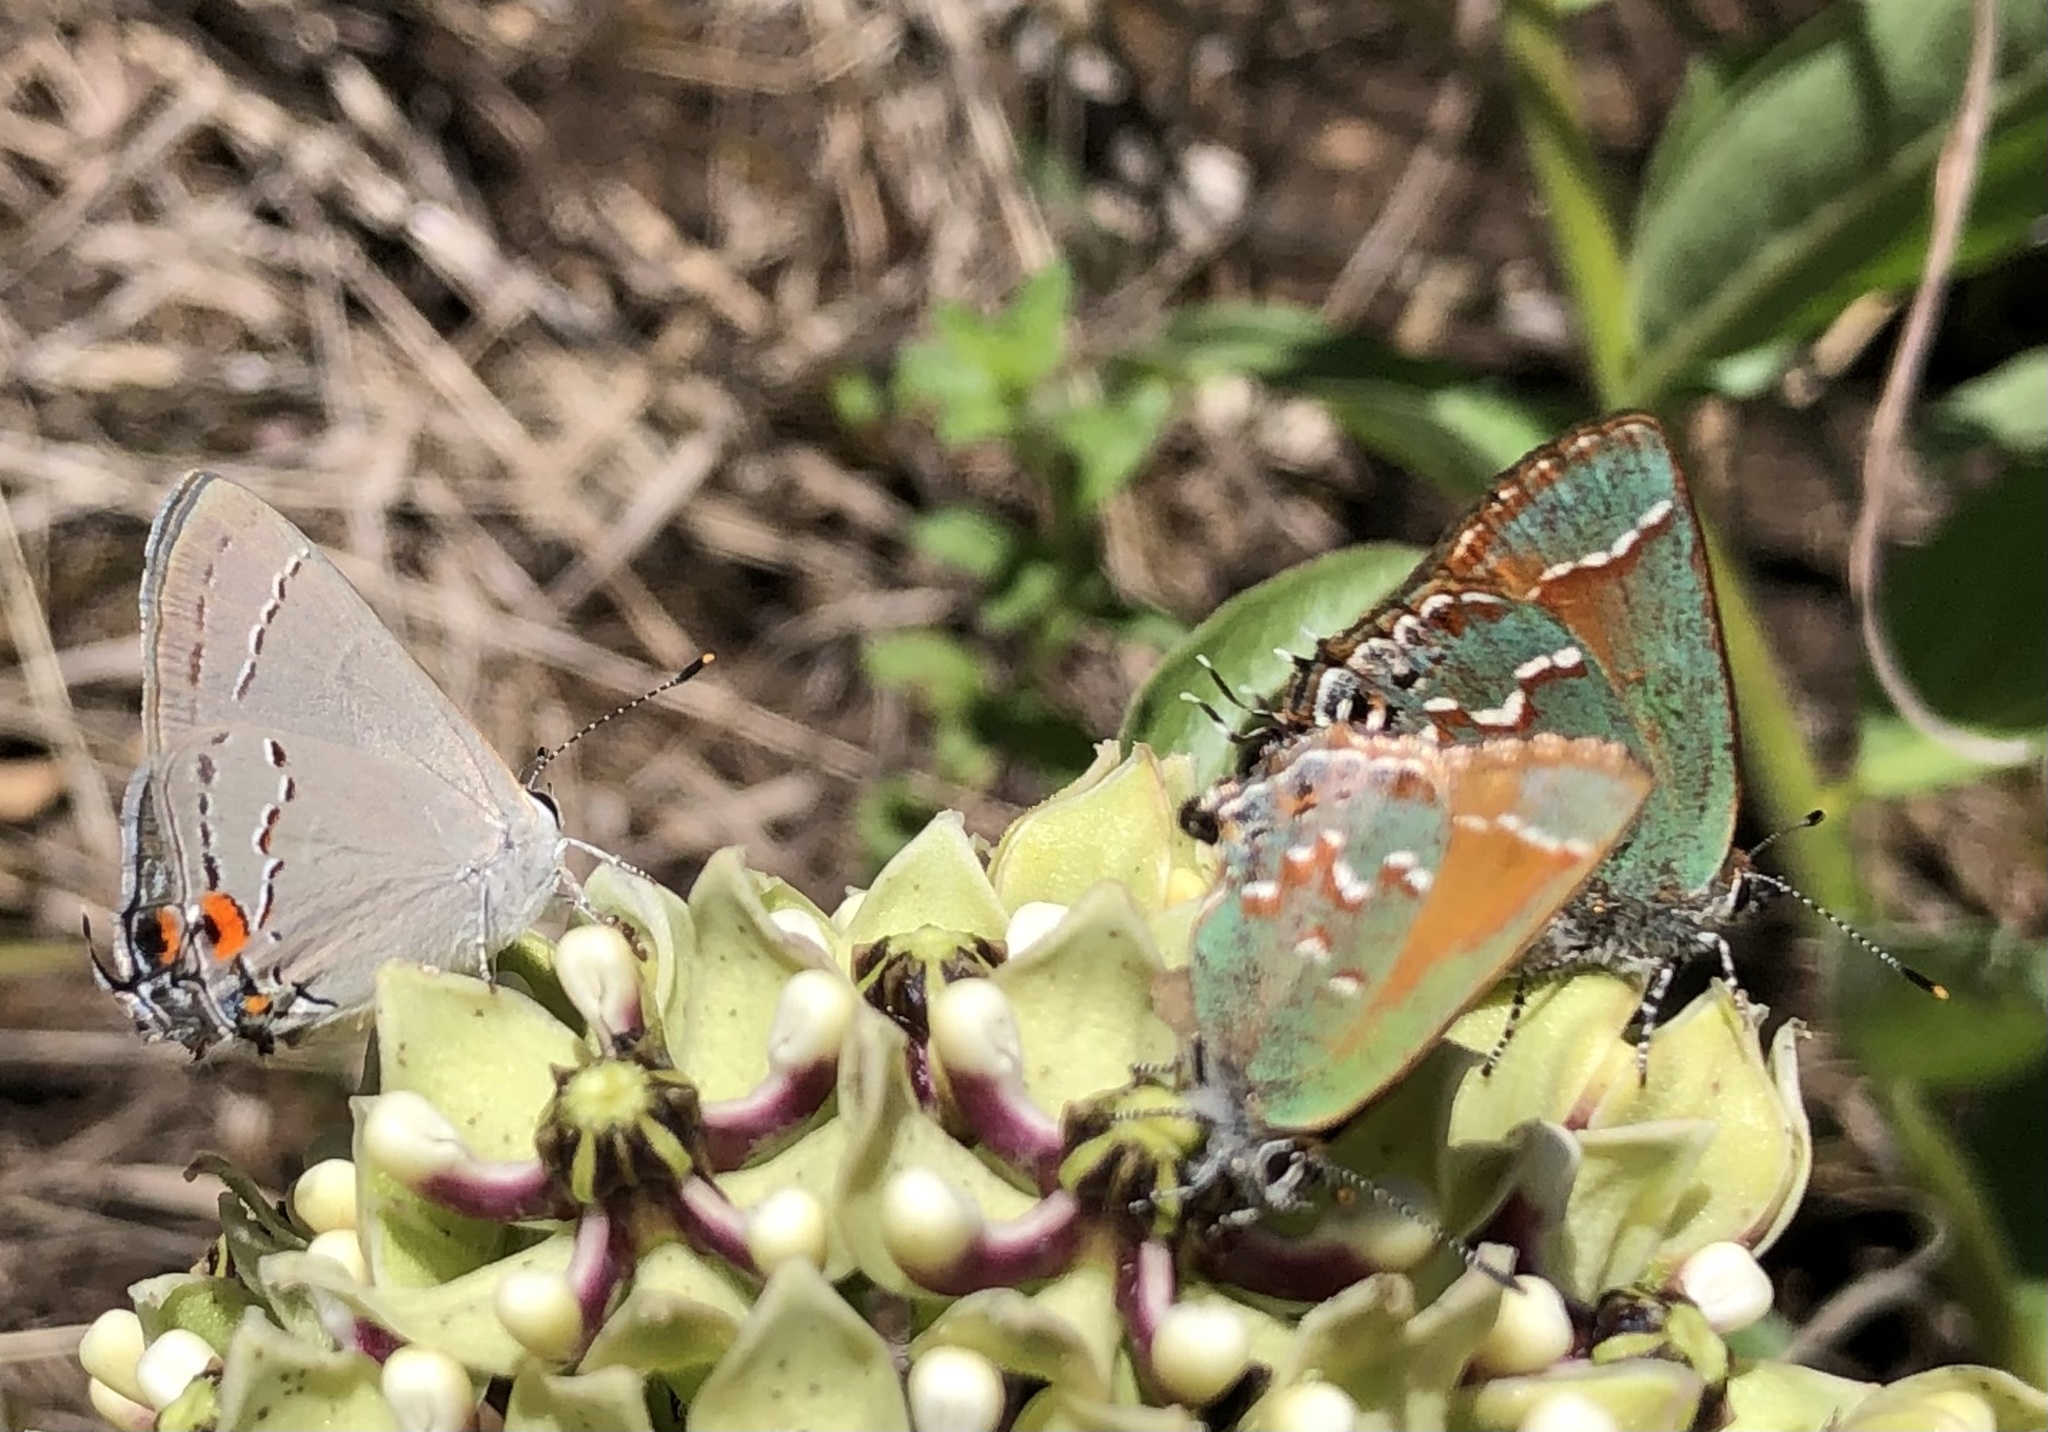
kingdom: Animalia
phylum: Arthropoda
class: Insecta
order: Lepidoptera
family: Lycaenidae
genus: Mitoura
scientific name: Mitoura gryneus
